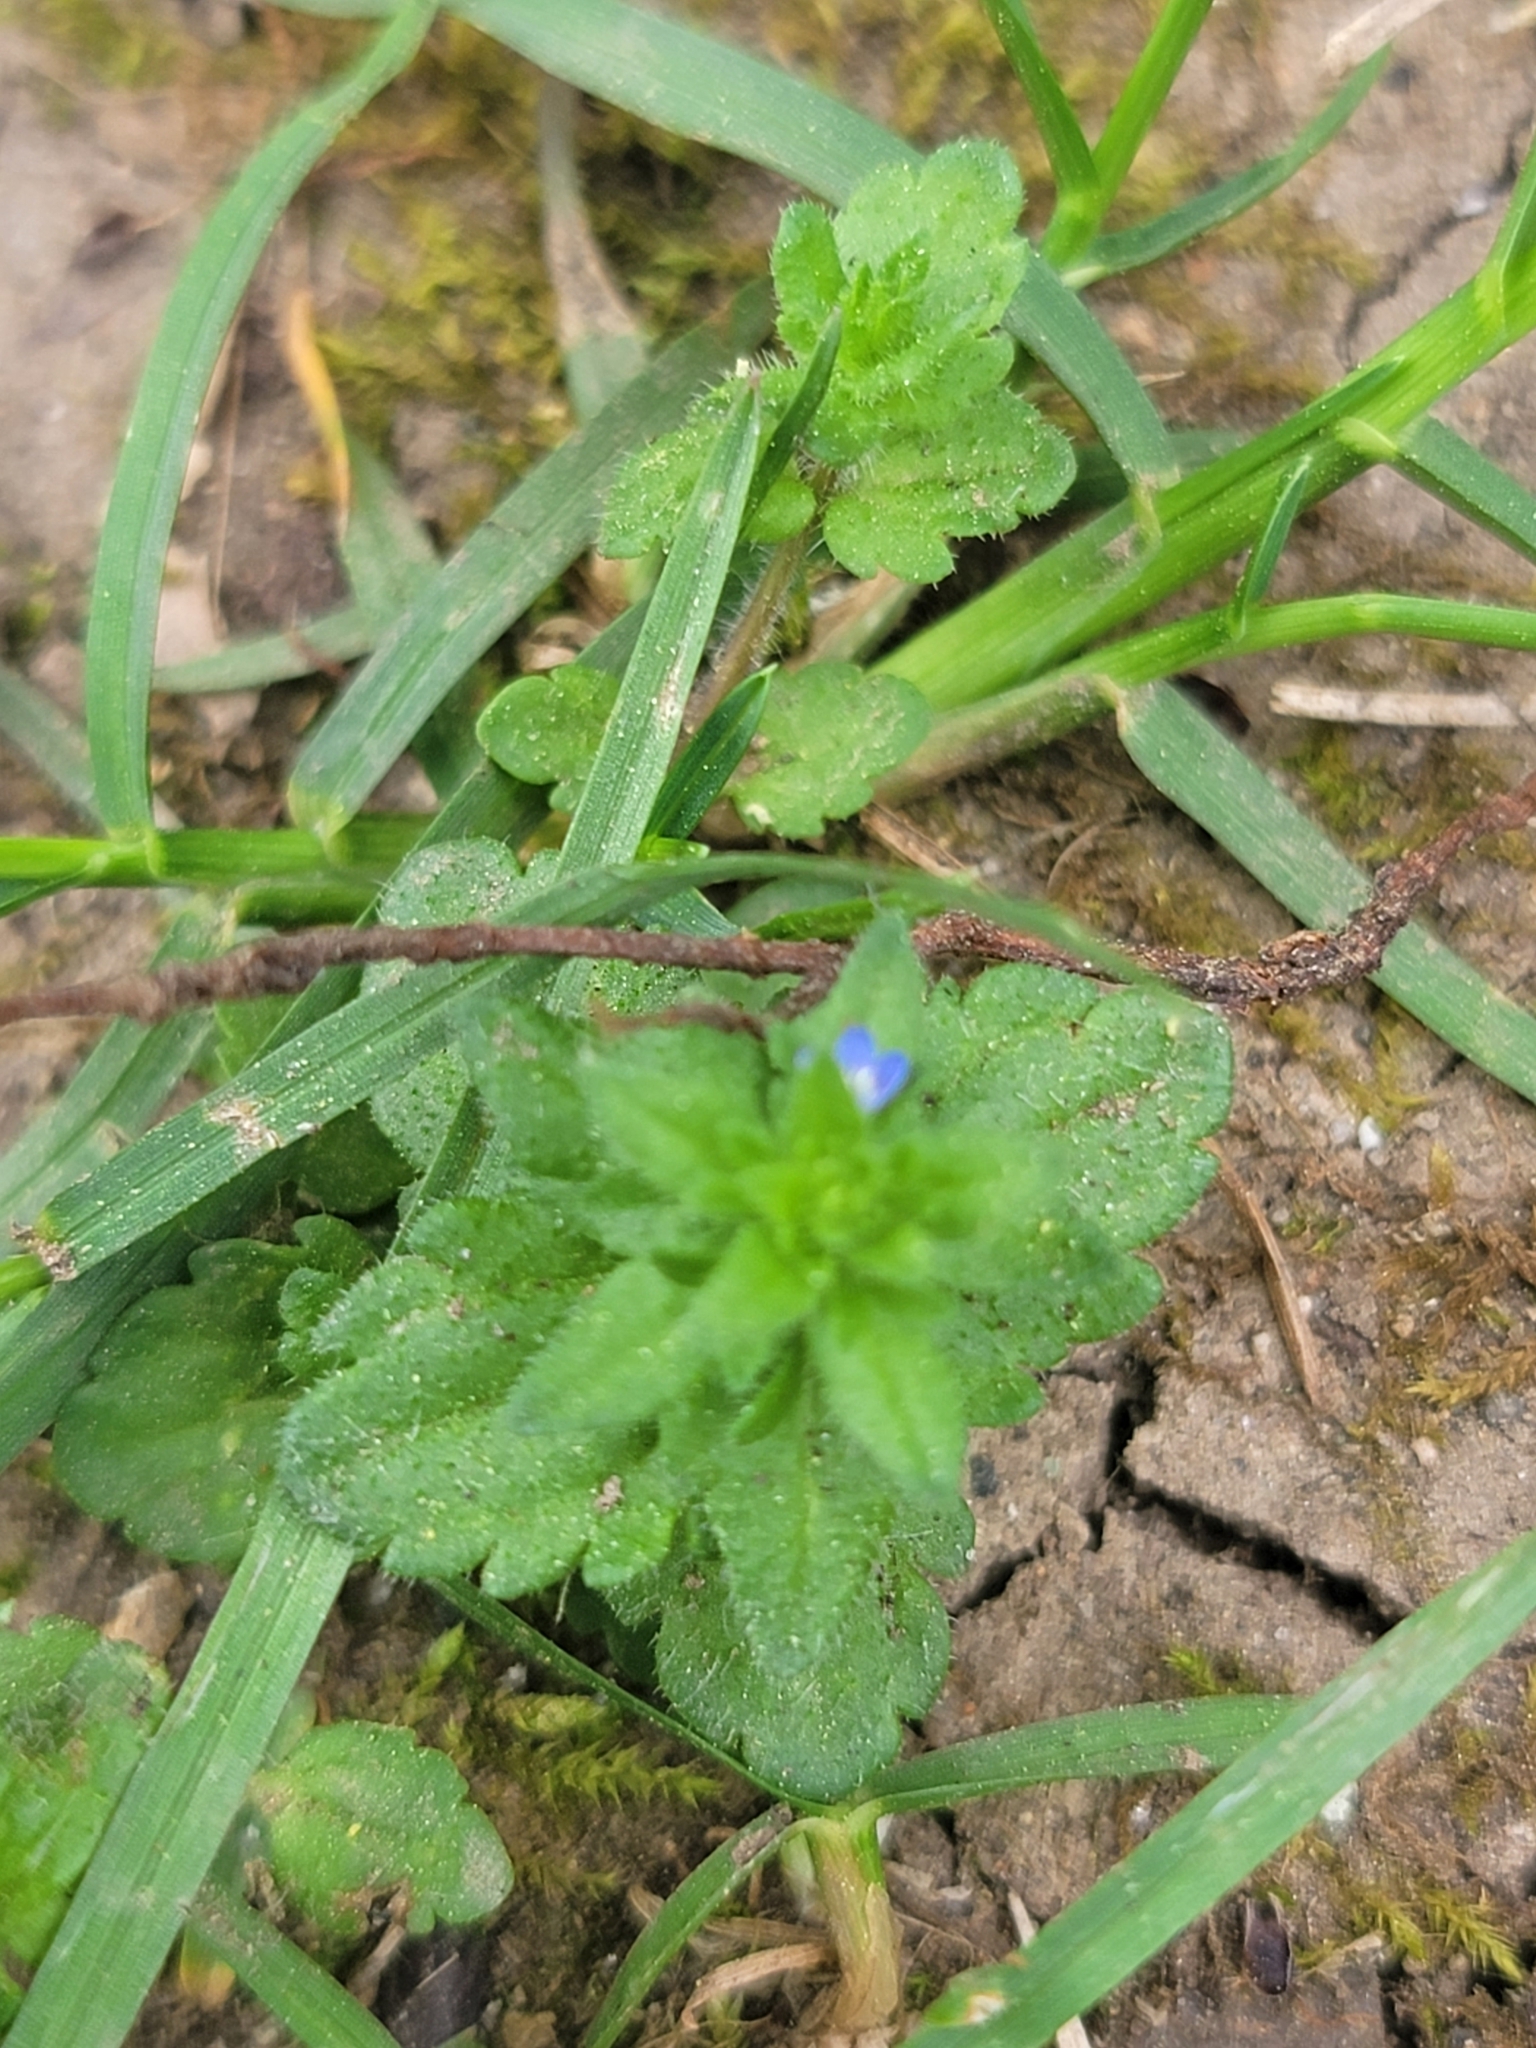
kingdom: Plantae
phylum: Tracheophyta
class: Magnoliopsida
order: Lamiales
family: Plantaginaceae
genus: Veronica
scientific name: Veronica arvensis
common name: Corn speedwell
